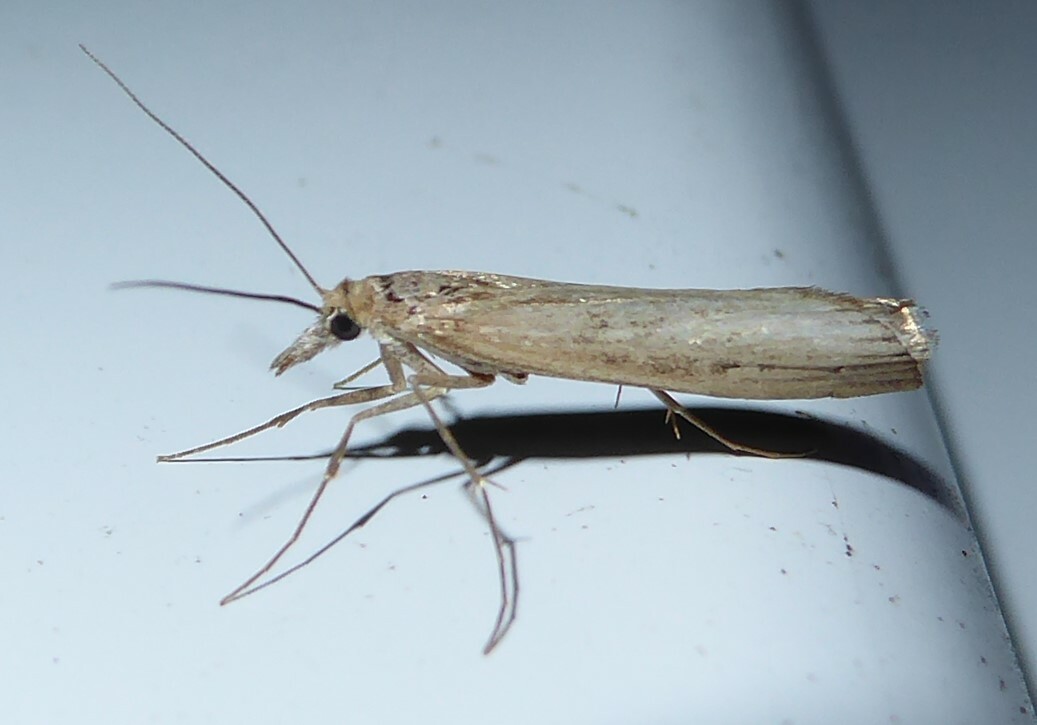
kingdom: Animalia
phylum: Arthropoda
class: Insecta
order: Lepidoptera
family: Crambidae
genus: Orocrambus
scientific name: Orocrambus cyclopicus
